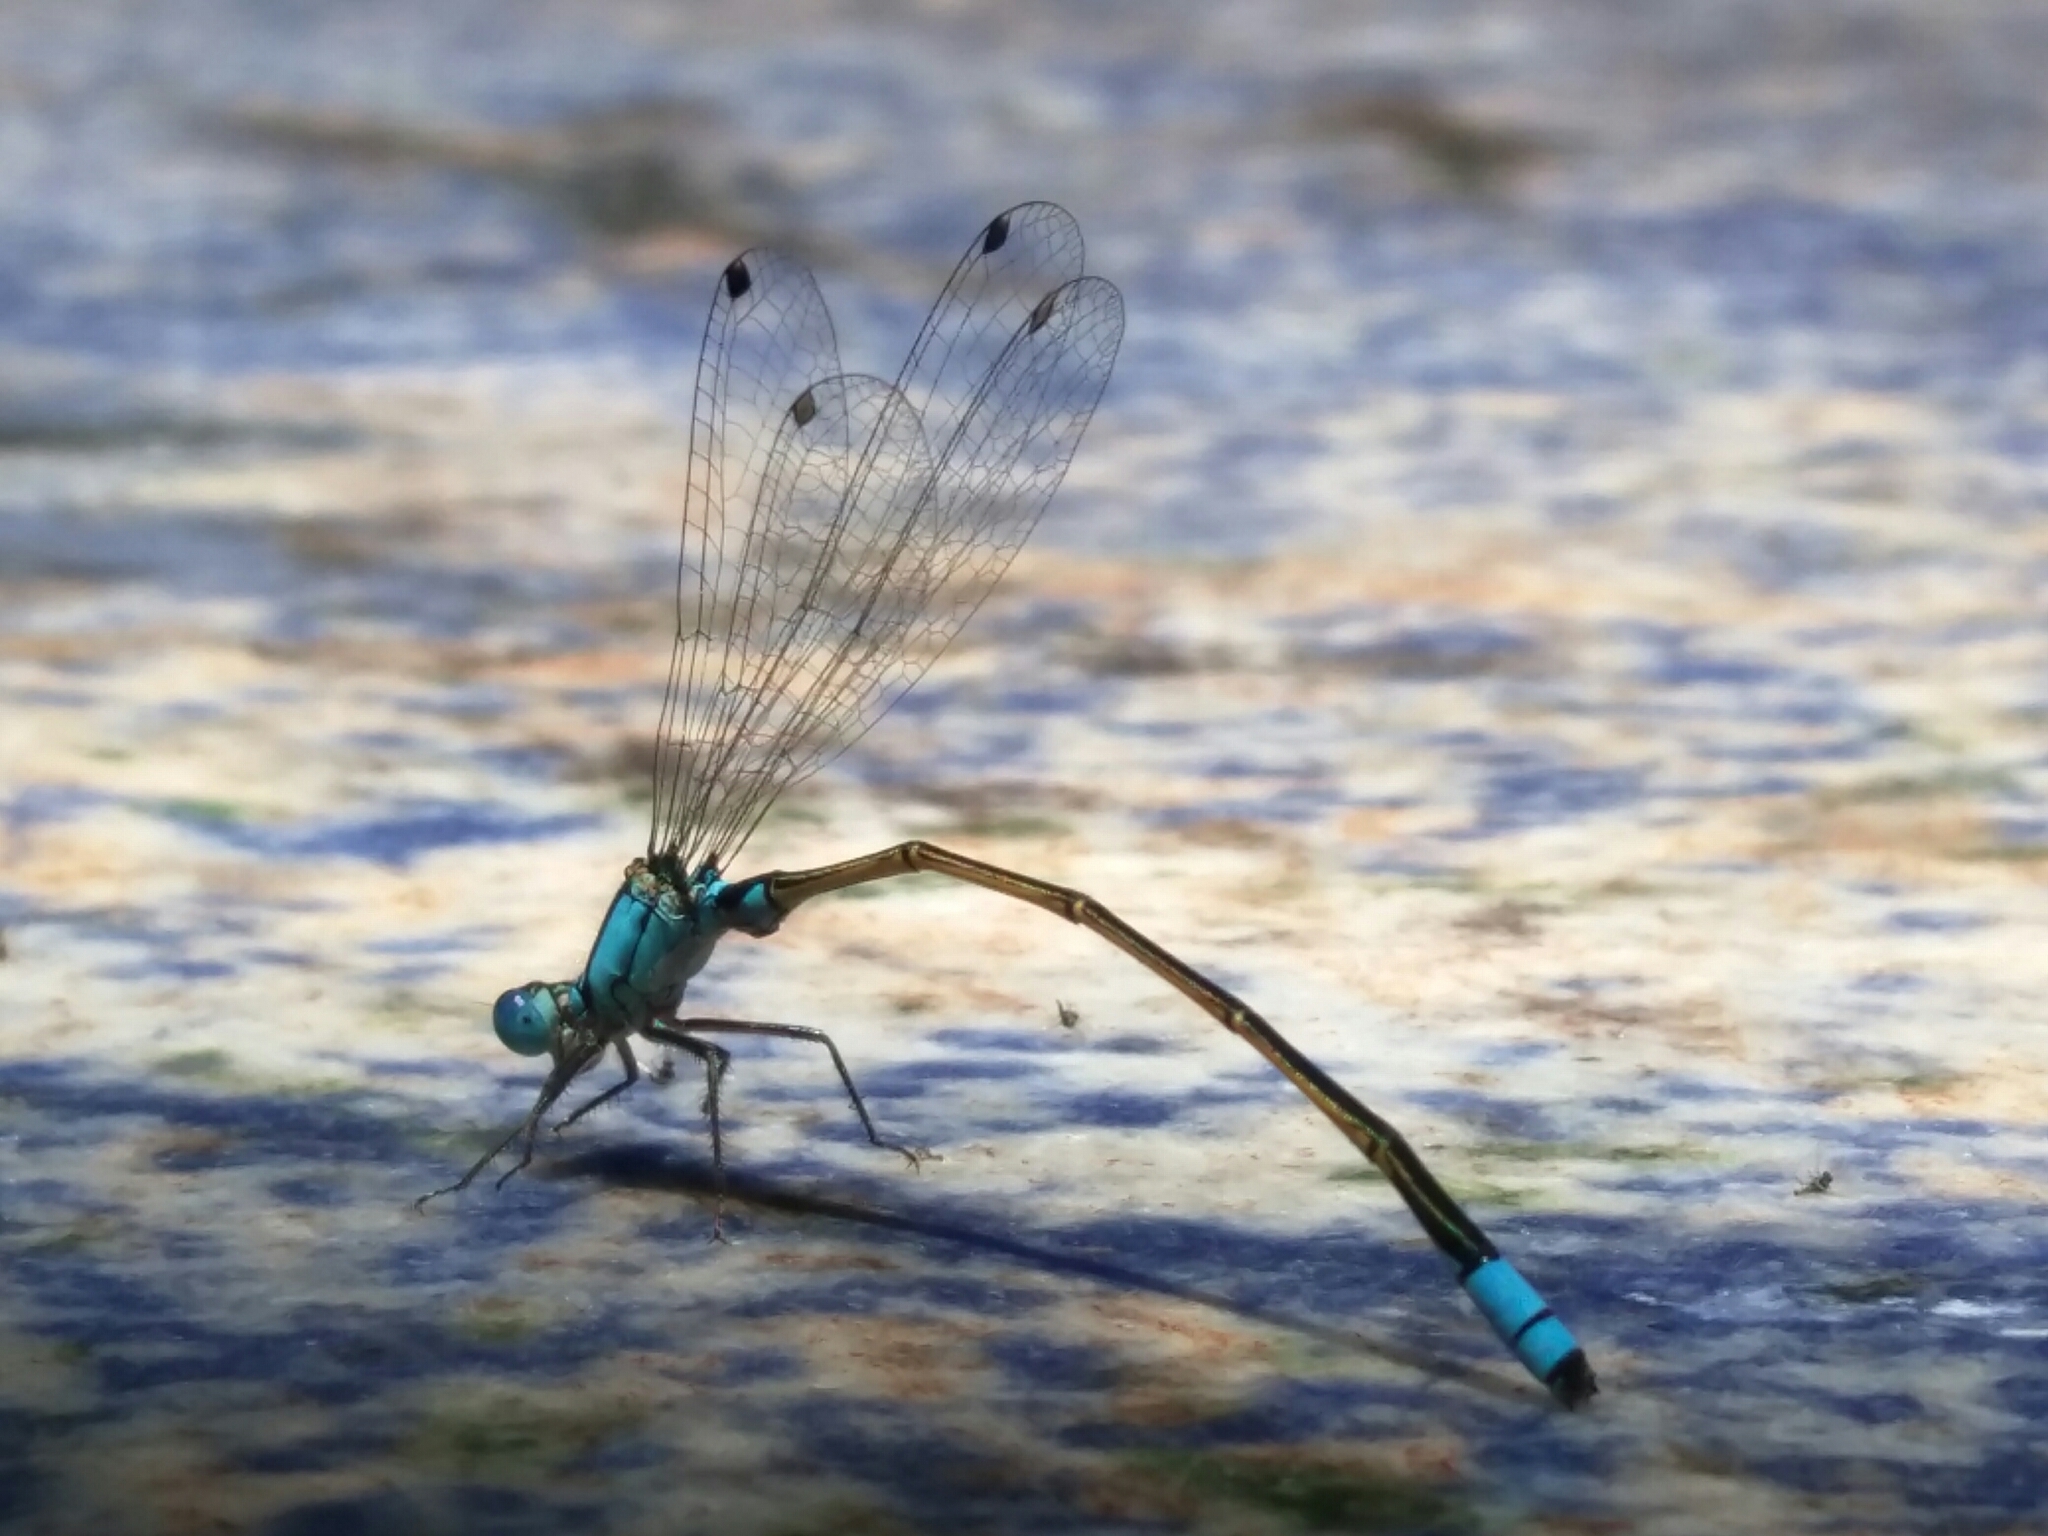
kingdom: Animalia
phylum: Arthropoda
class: Insecta
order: Odonata
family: Coenagrionidae
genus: Ischnura
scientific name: Ischnura heterosticta
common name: Common bluetail
